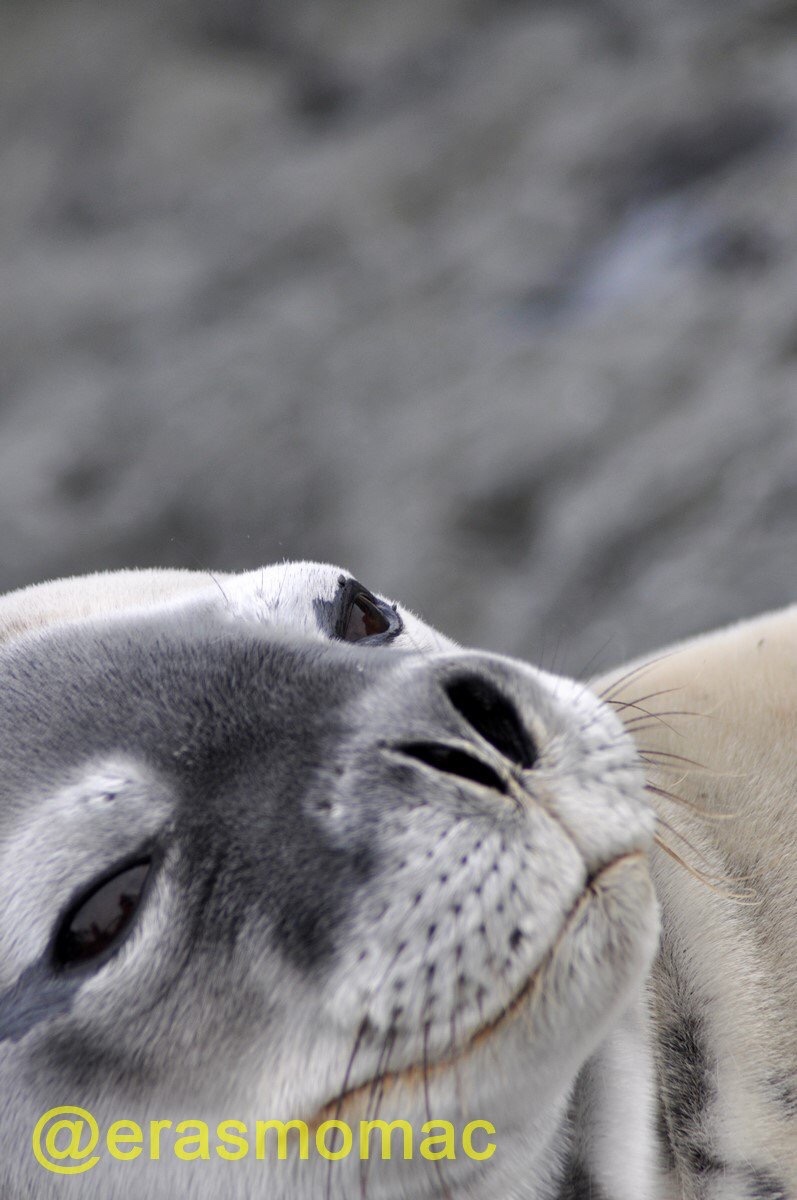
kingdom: Animalia
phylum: Chordata
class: Mammalia
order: Carnivora
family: Phocidae
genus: Leptonychotes
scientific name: Leptonychotes weddellii
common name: Weddell seal
